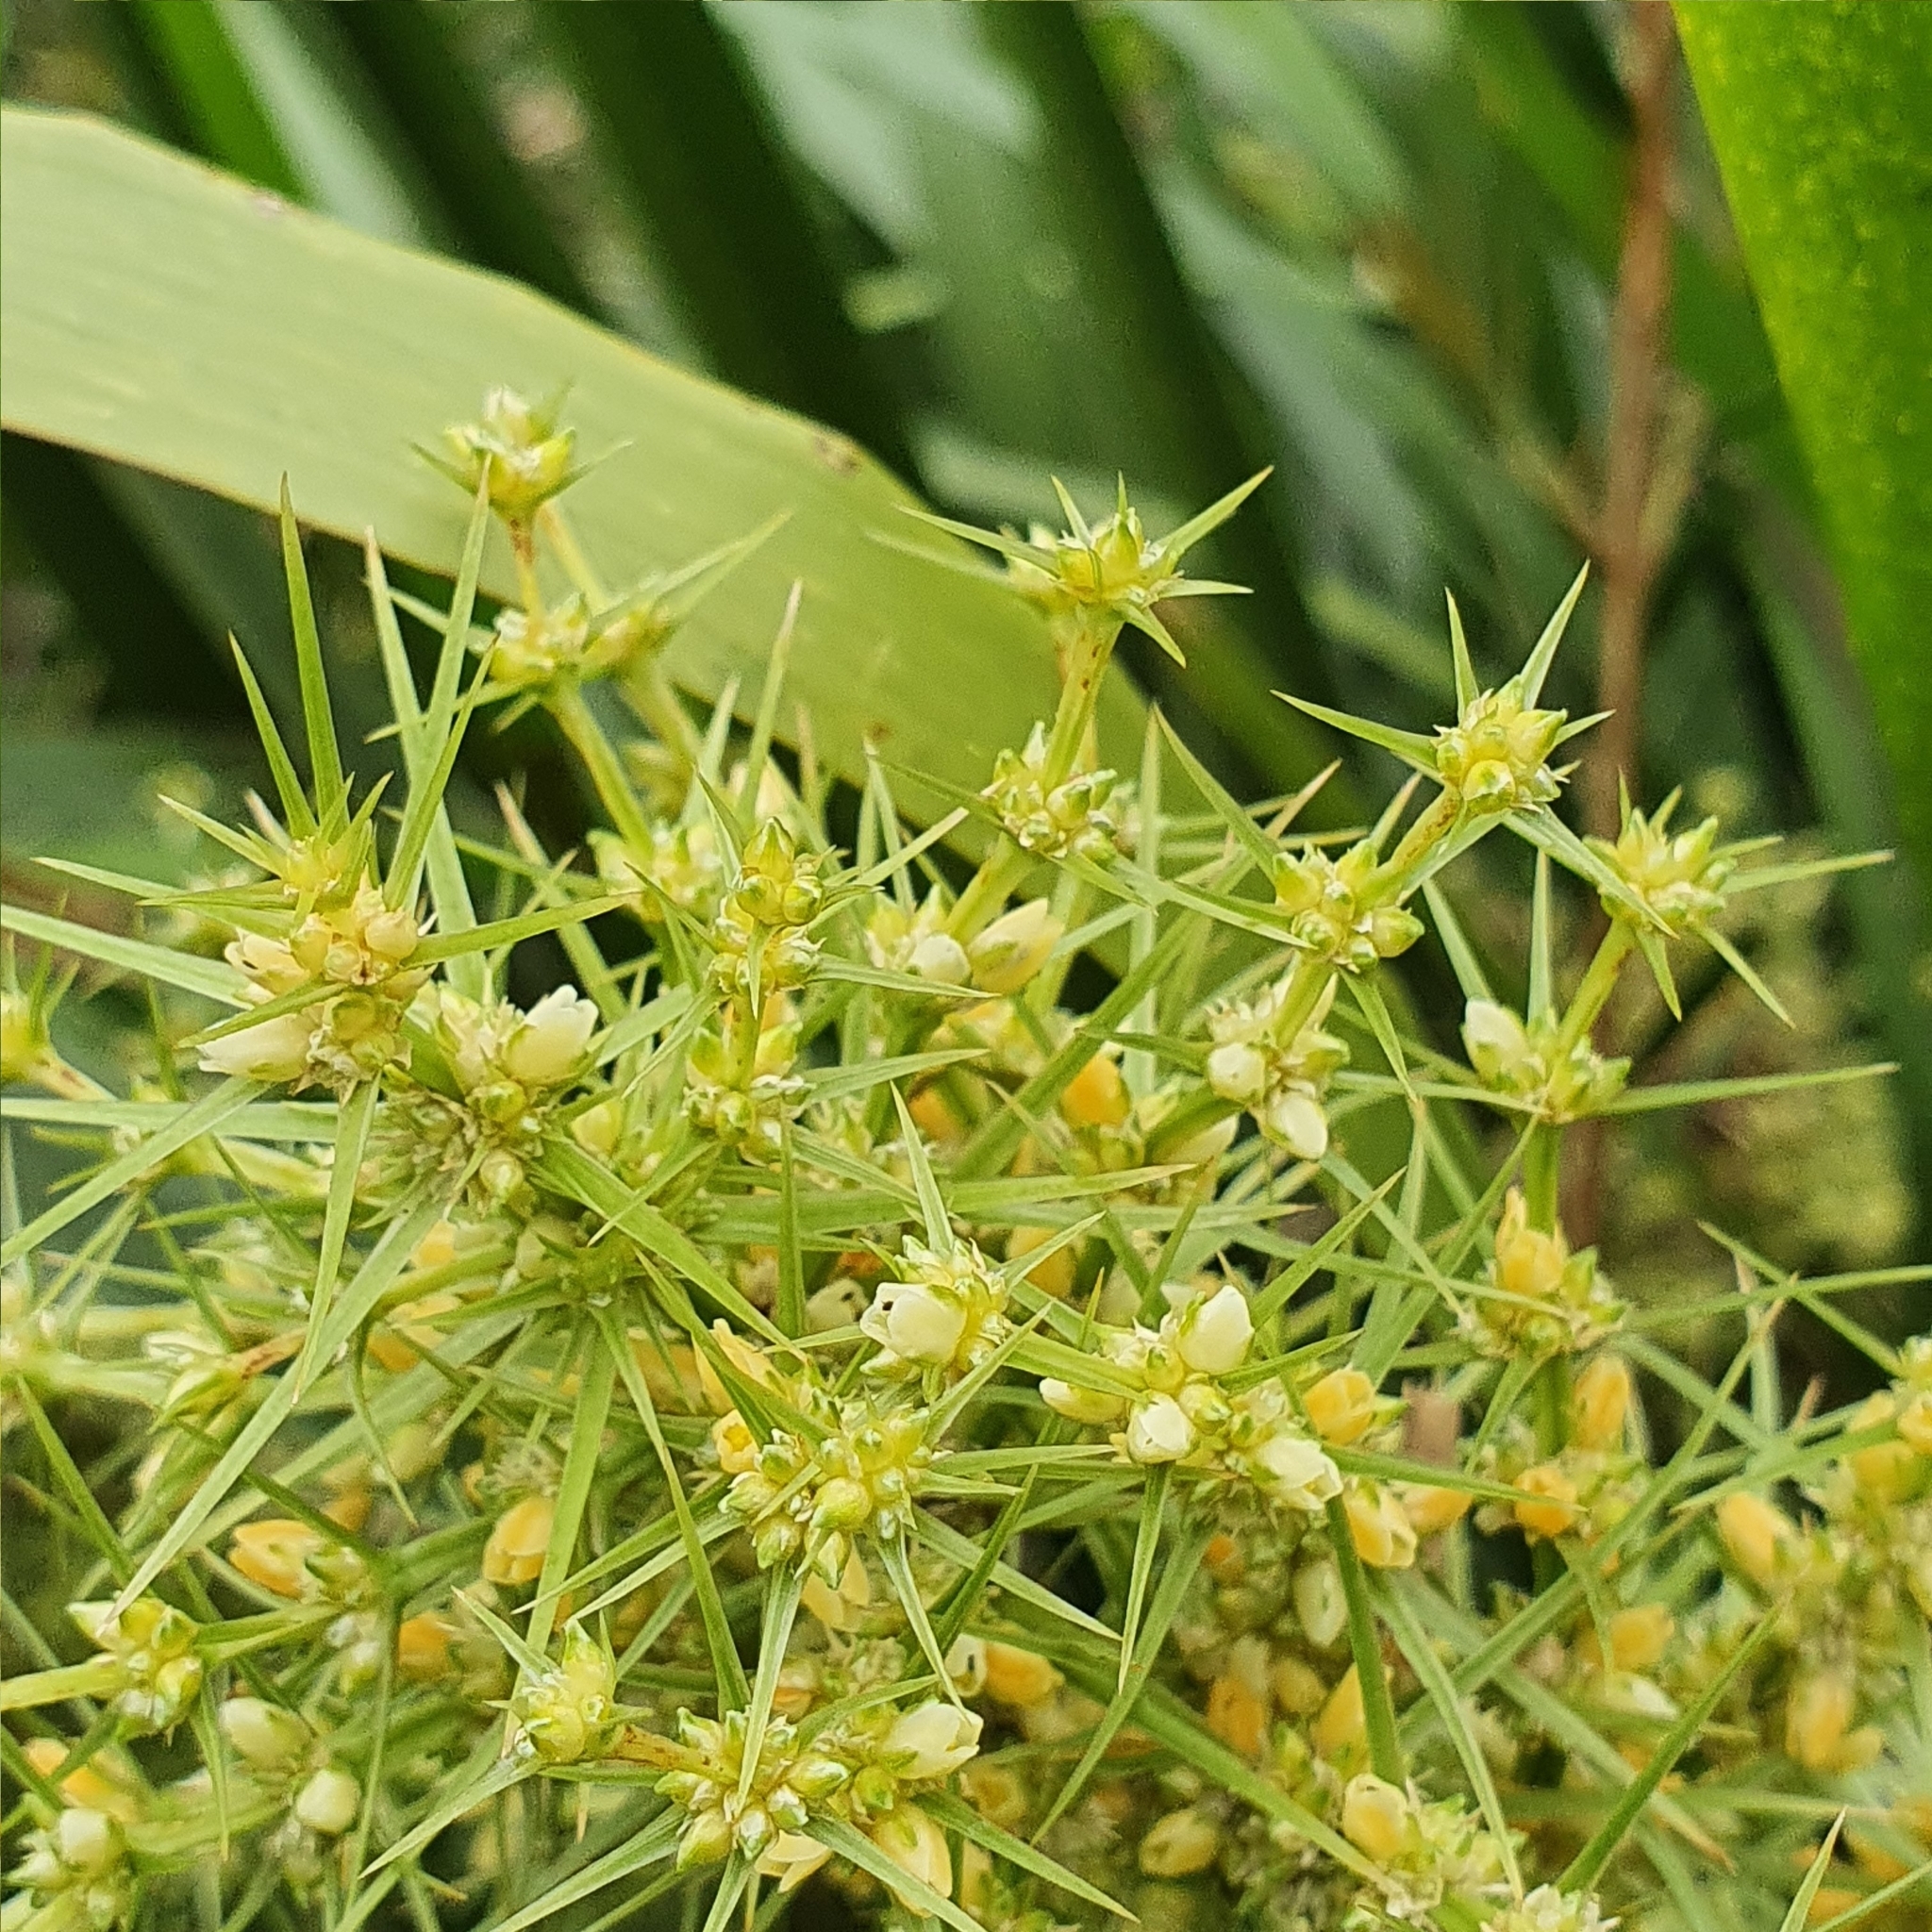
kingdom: Plantae
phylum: Tracheophyta
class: Liliopsida
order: Asparagales
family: Asparagaceae
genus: Lomandra
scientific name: Lomandra hystrix
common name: Creek mat-rush
